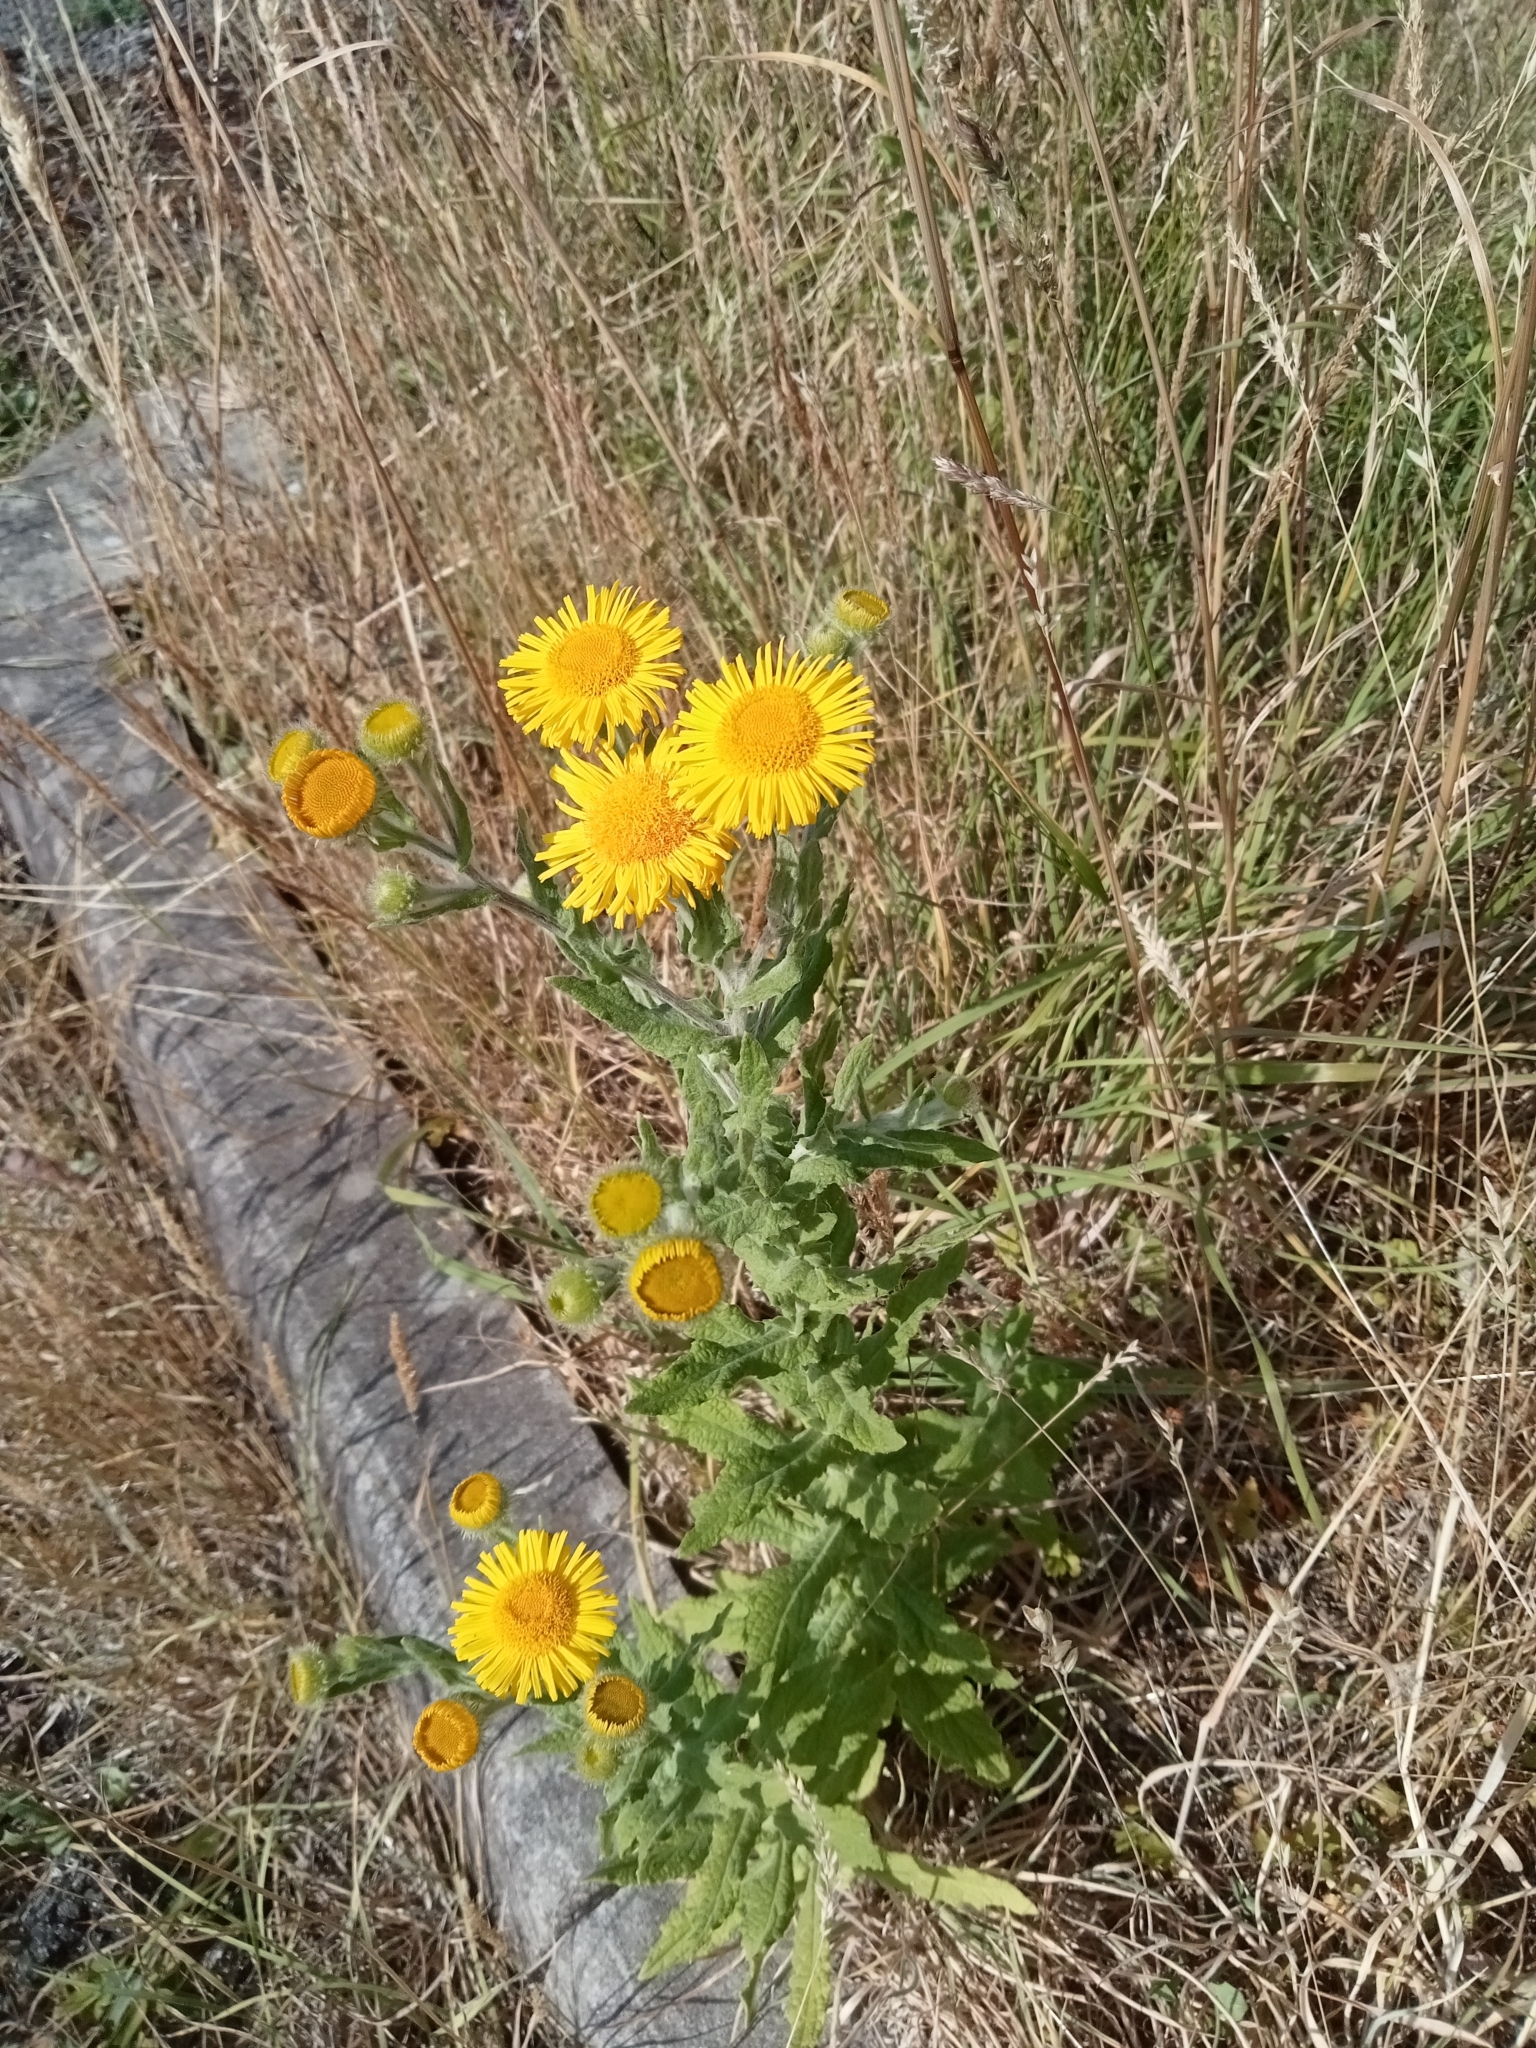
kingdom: Plantae
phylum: Tracheophyta
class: Magnoliopsida
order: Asterales
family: Asteraceae
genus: Pulicaria
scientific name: Pulicaria dysenterica
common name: Common fleabane
